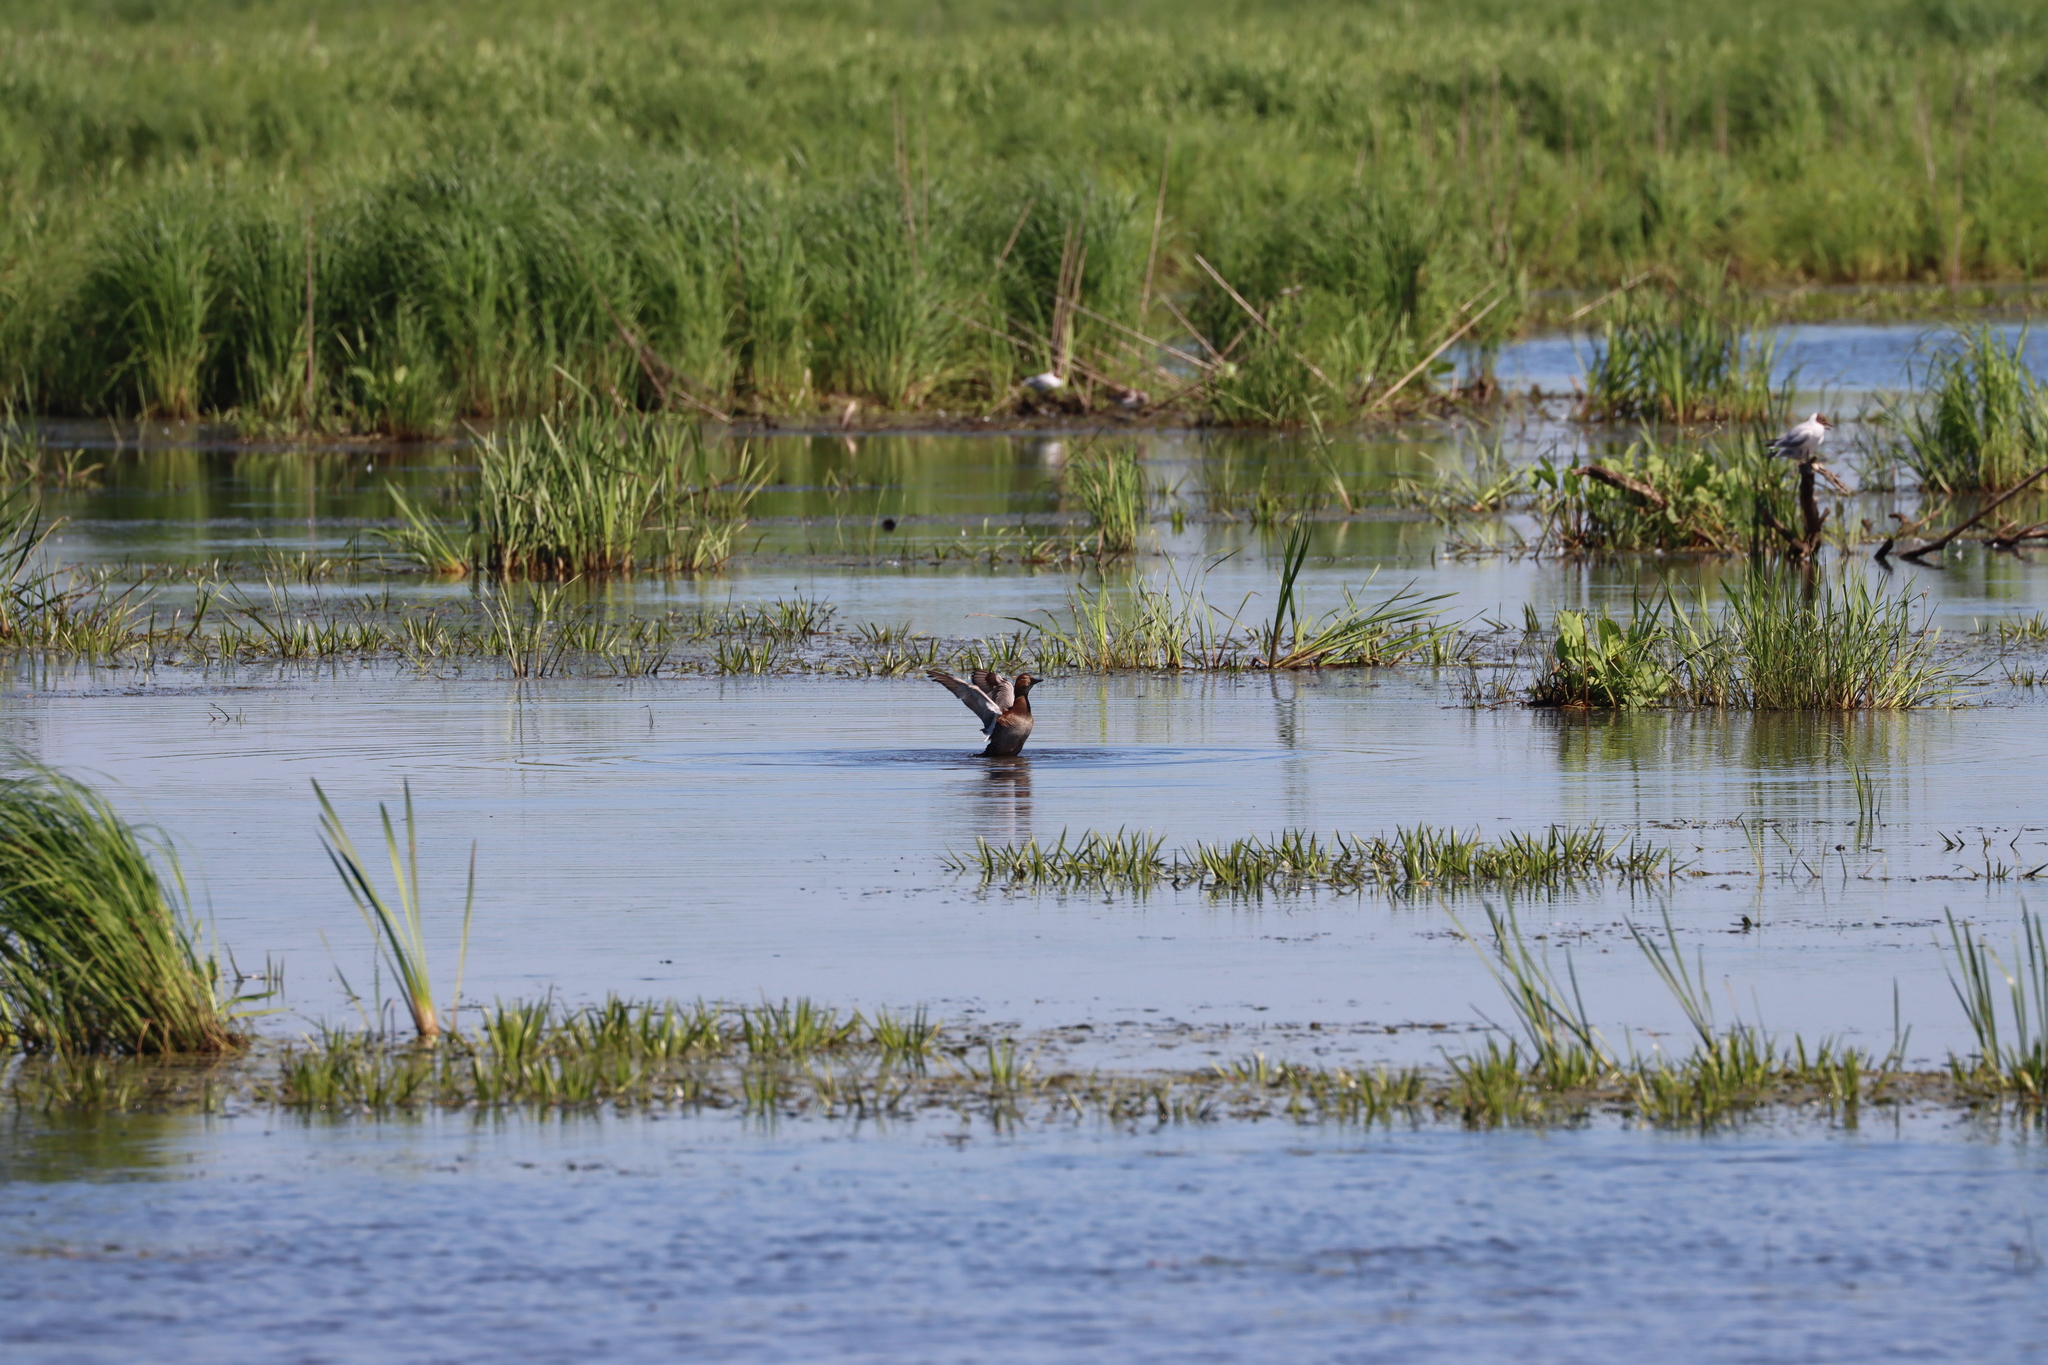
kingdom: Animalia
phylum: Chordata
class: Aves
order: Anseriformes
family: Anatidae
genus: Aythya
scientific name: Aythya ferina
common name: Common pochard
